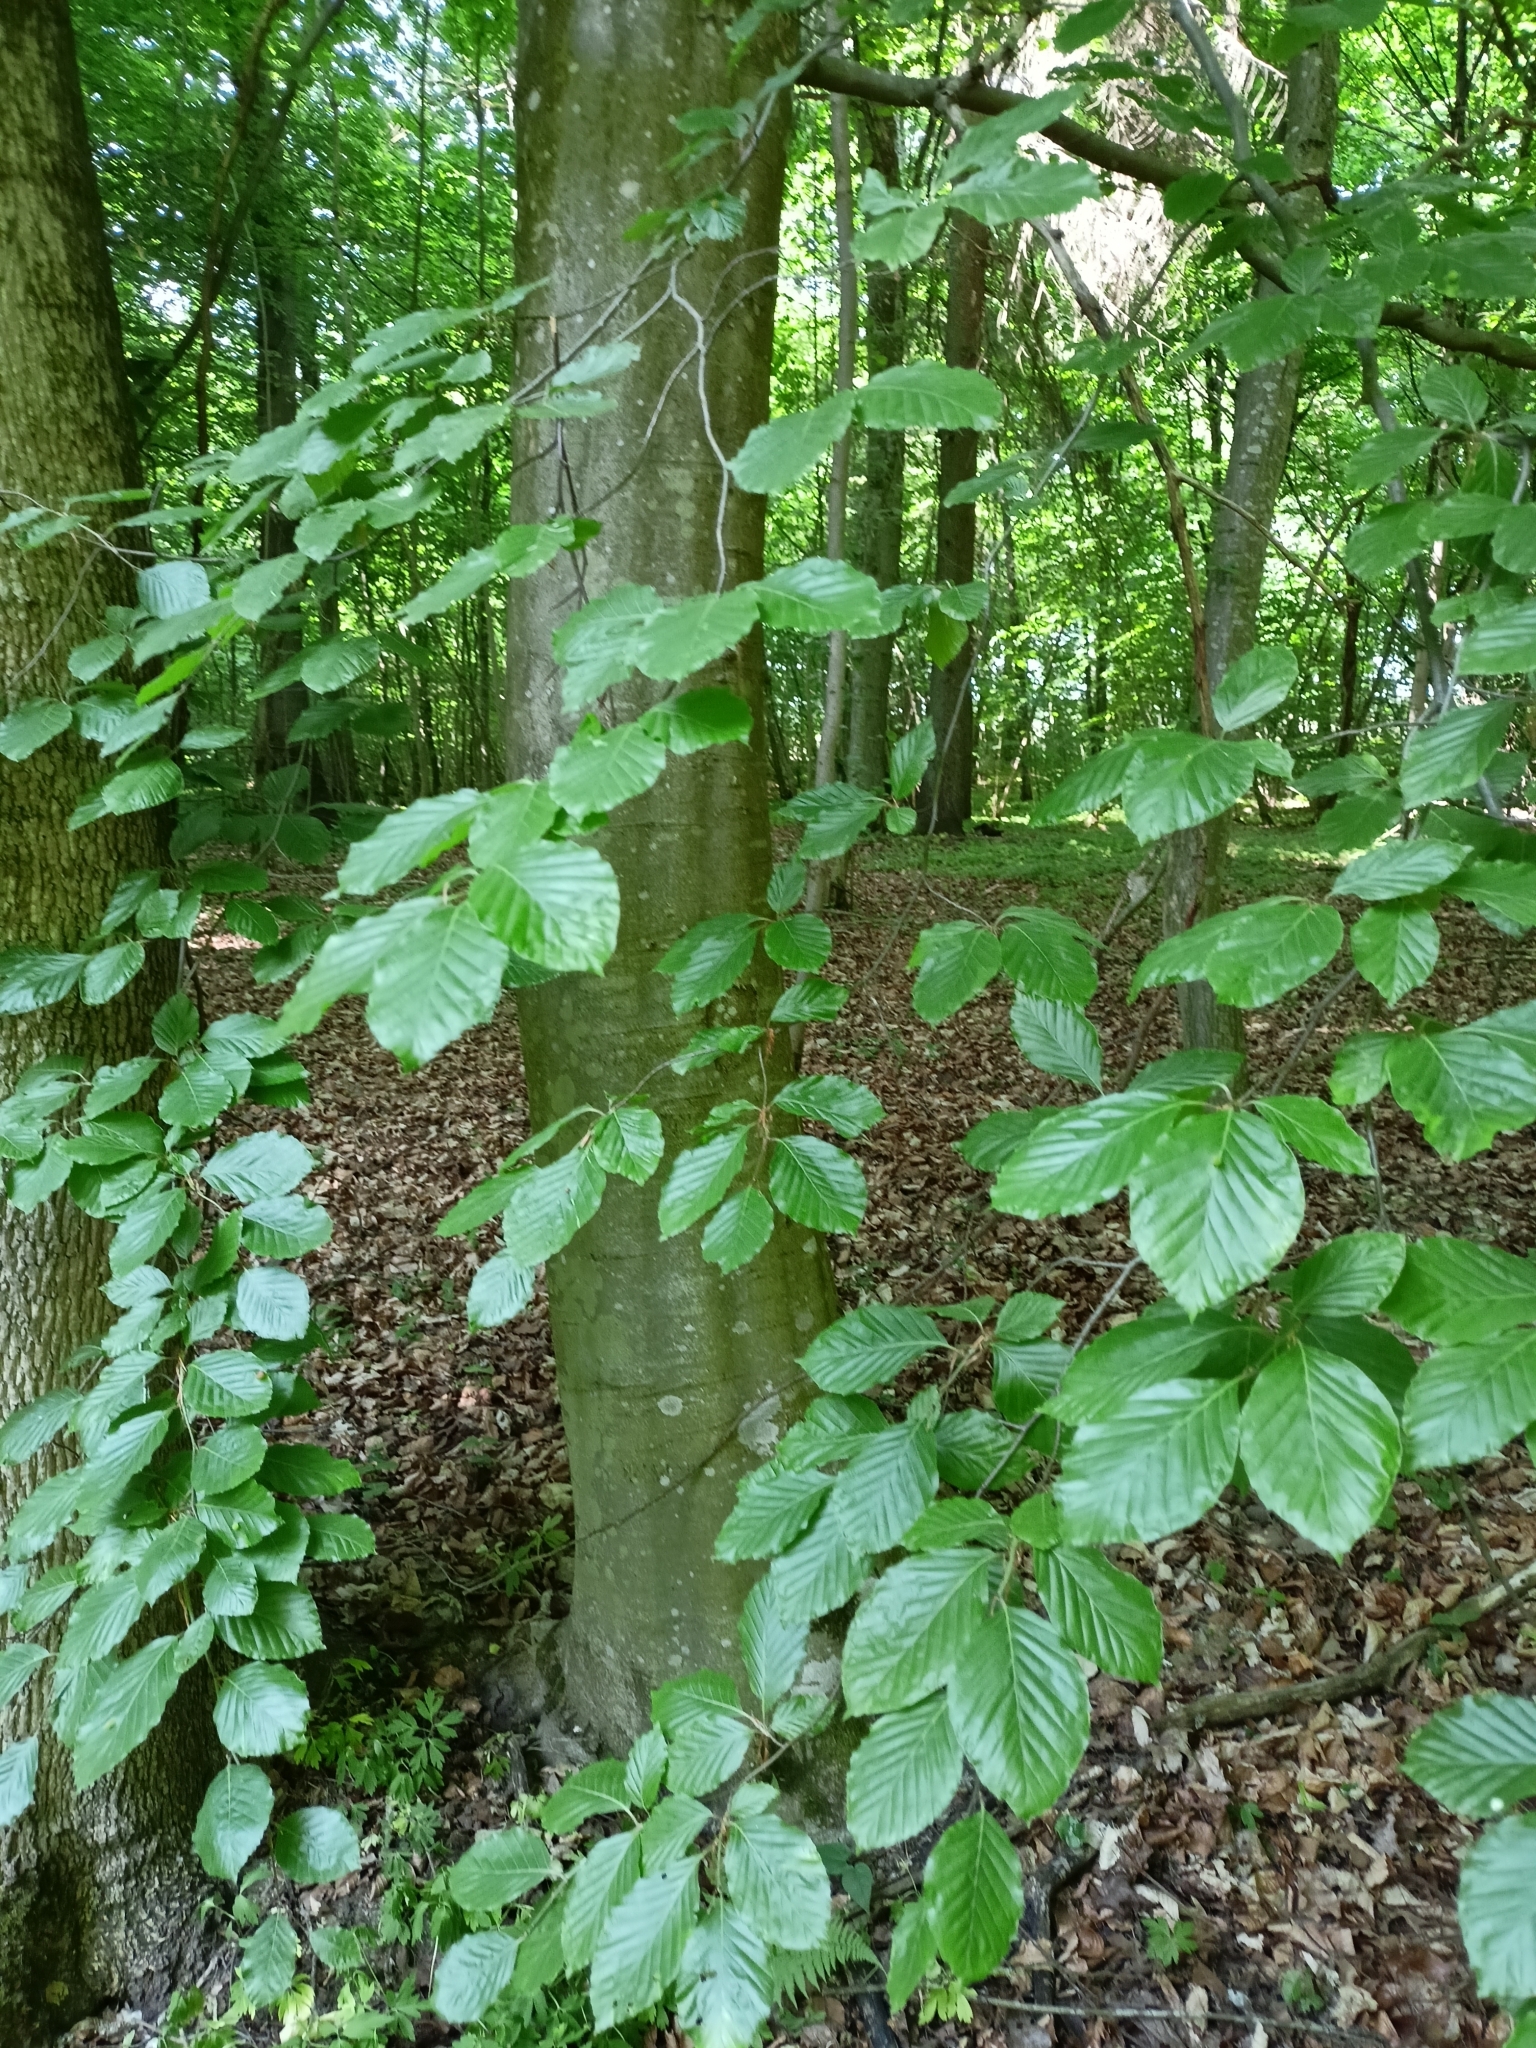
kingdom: Plantae
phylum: Tracheophyta
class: Magnoliopsida
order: Fagales
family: Fagaceae
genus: Fagus
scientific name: Fagus sylvatica
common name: Beech
